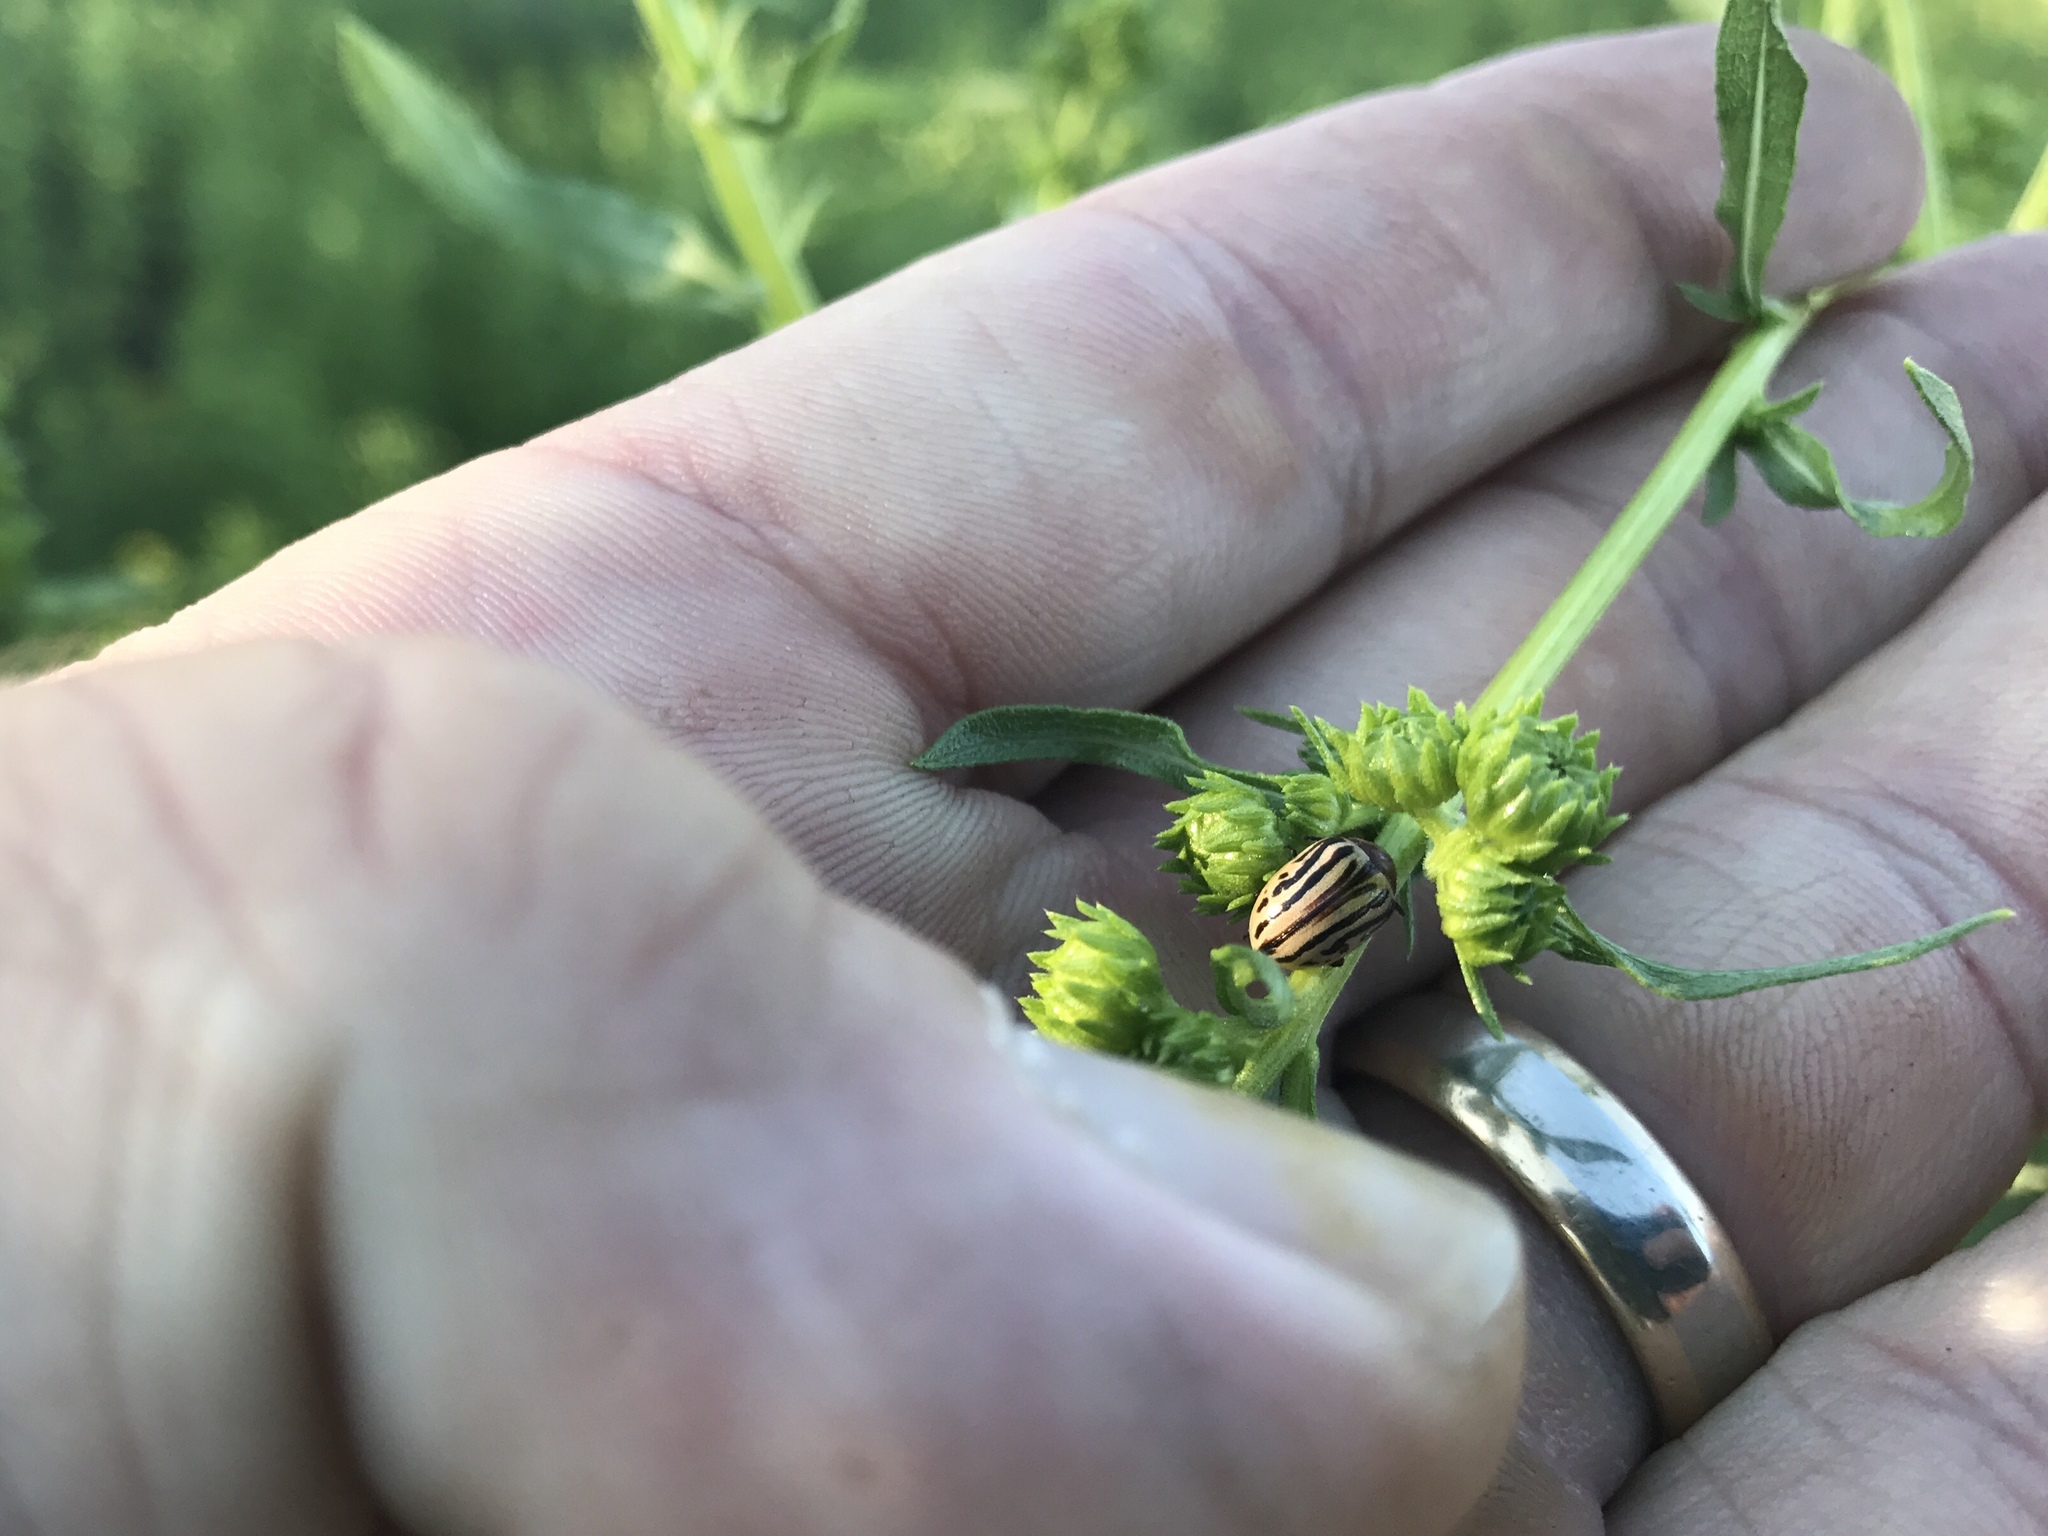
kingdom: Animalia
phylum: Arthropoda
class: Insecta
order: Coleoptera
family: Chrysomelidae
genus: Calligrapha
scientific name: Calligrapha
